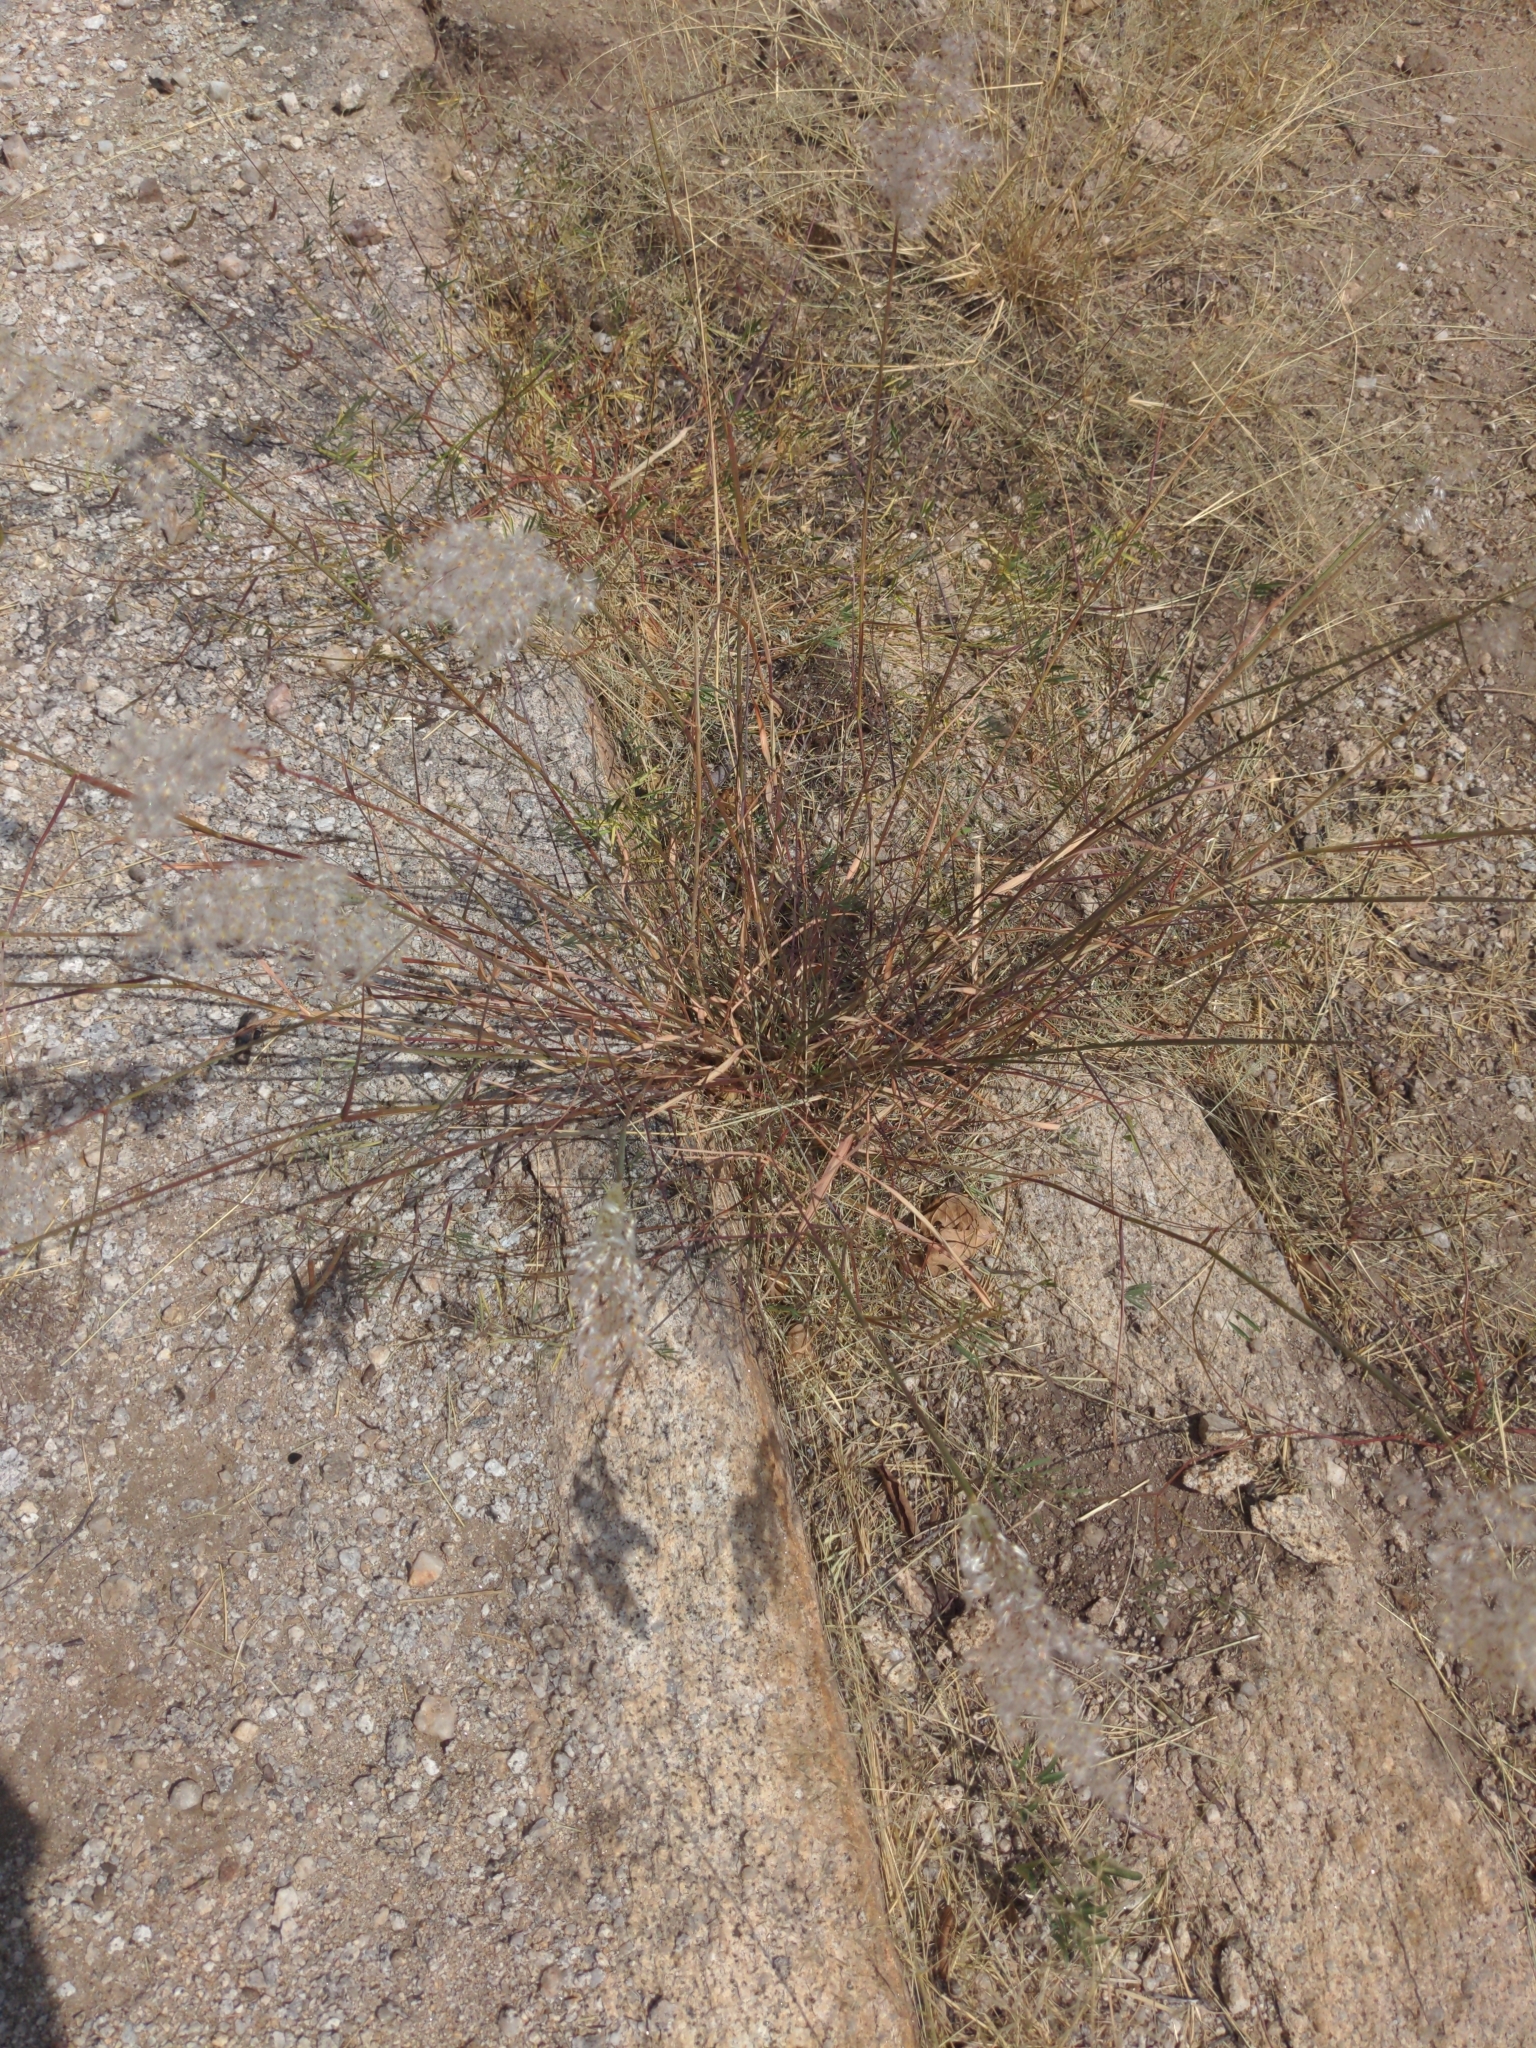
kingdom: Plantae
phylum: Tracheophyta
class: Liliopsida
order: Poales
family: Poaceae
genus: Melinis
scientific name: Melinis repens
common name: Rose natal grass
